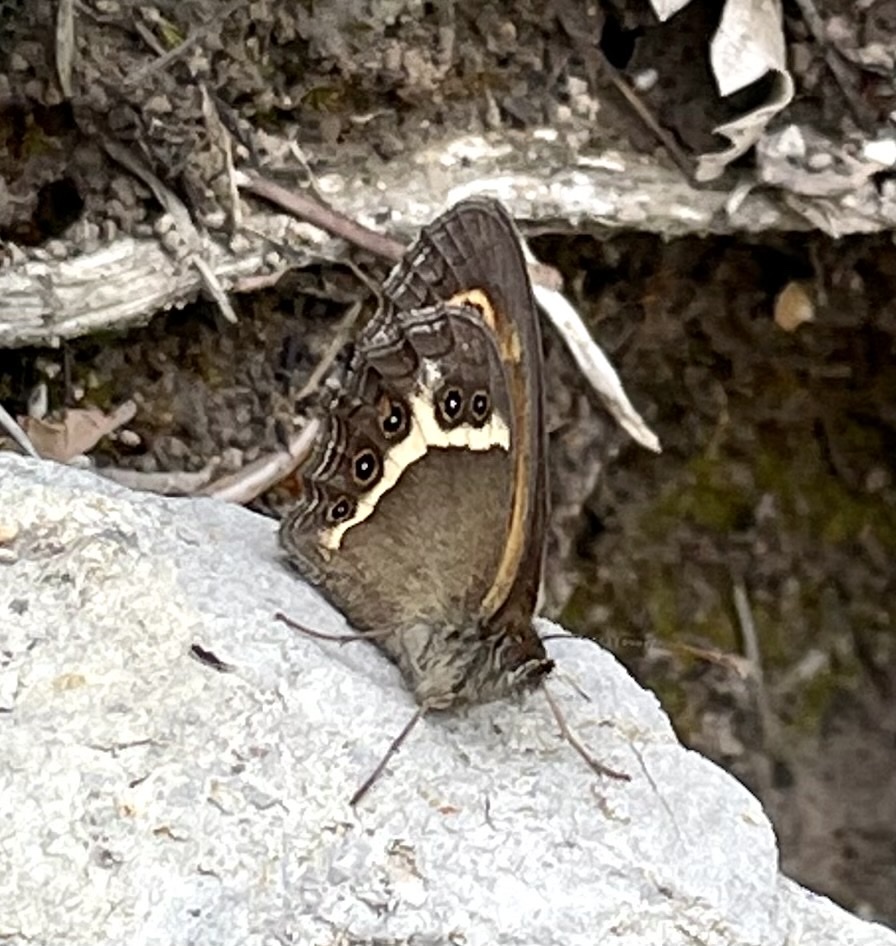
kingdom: Animalia
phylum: Arthropoda
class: Insecta
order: Lepidoptera
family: Nymphalidae
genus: Pyronia
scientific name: Pyronia bathseba
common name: Spanish gatekeeper
